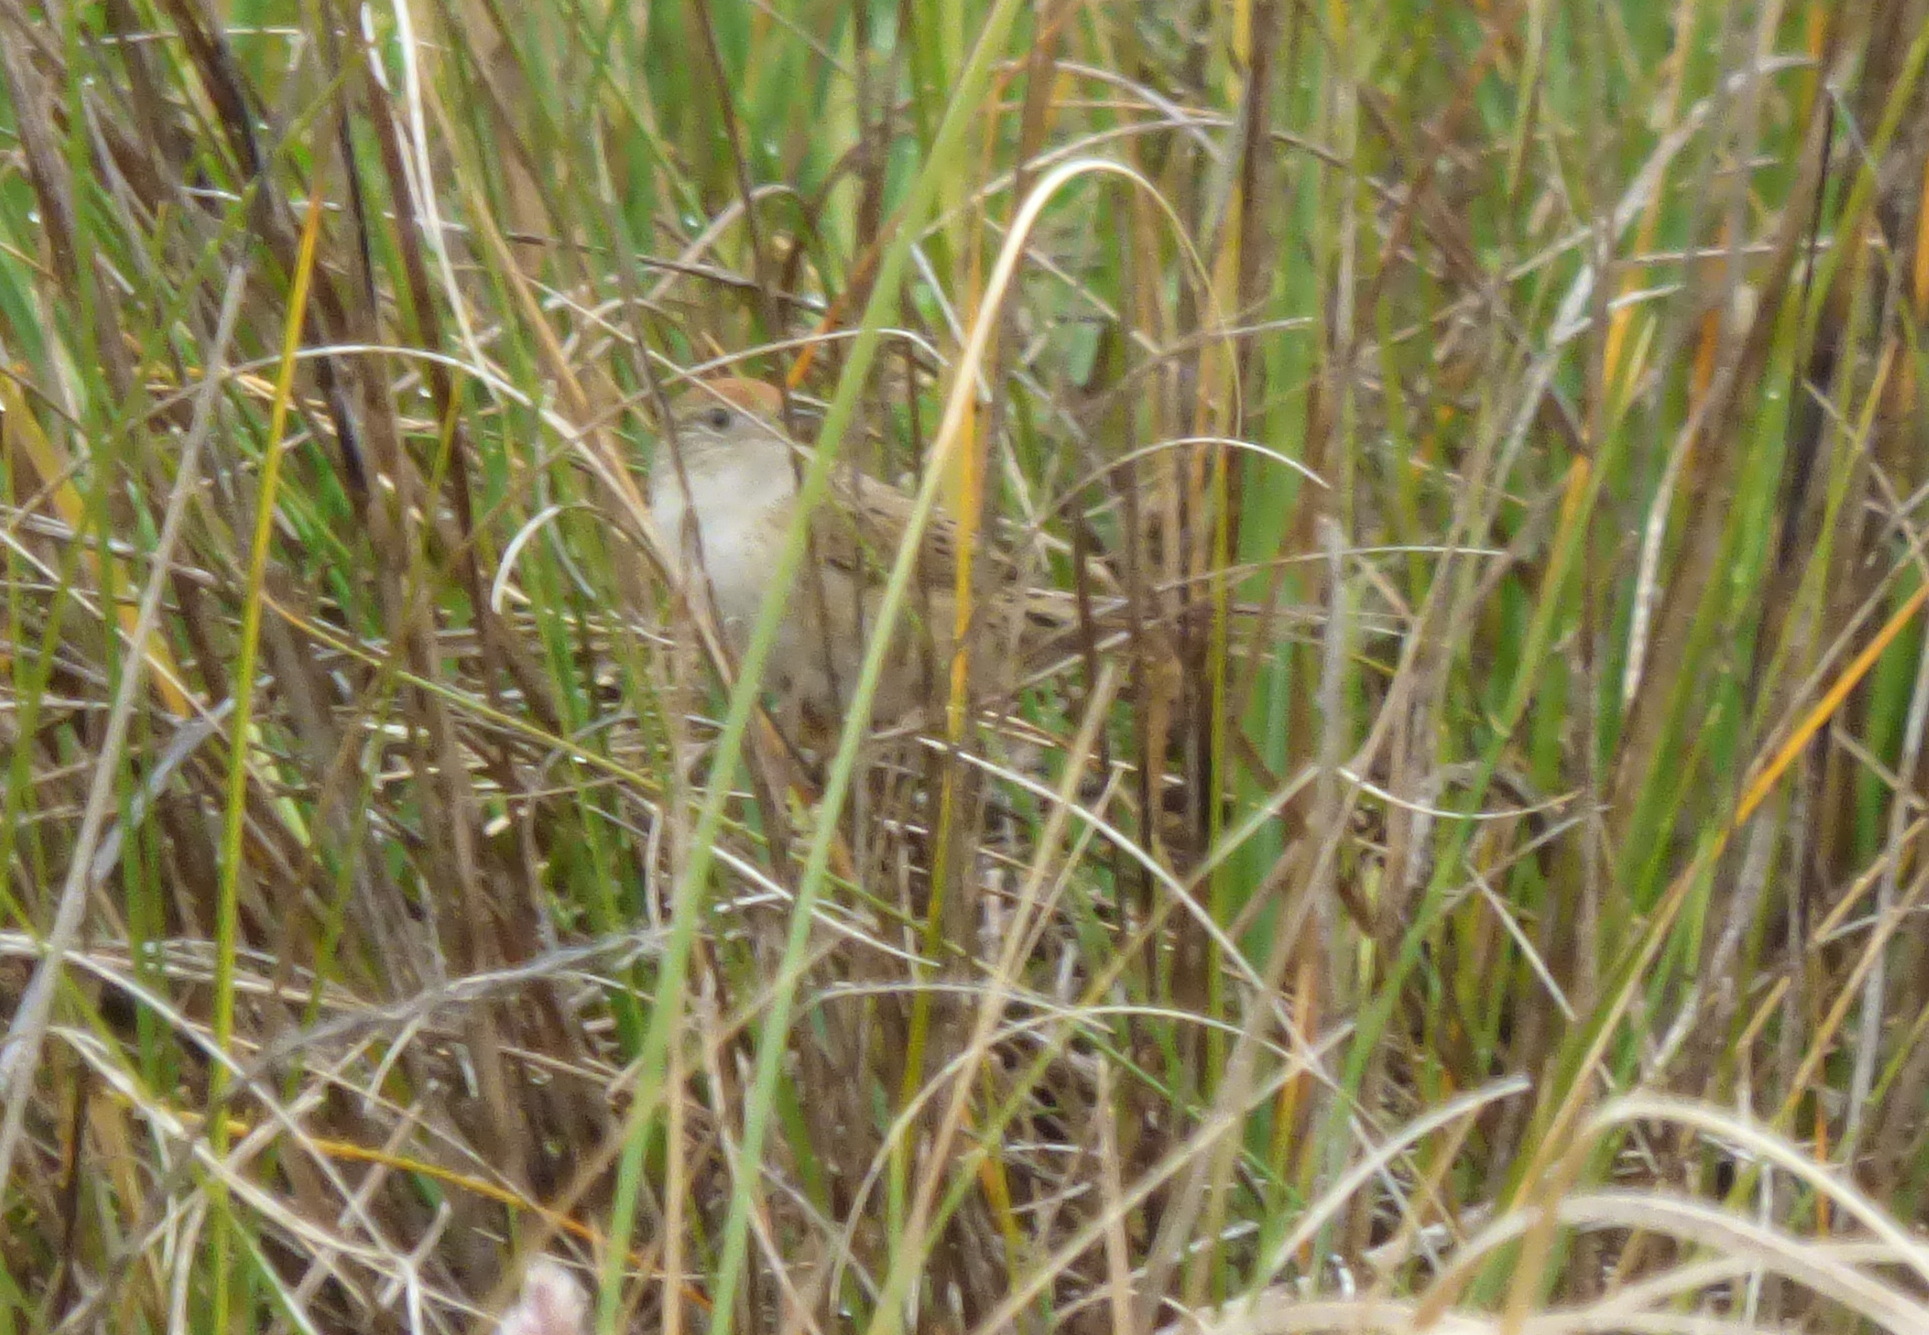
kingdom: Animalia
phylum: Chordata
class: Aves
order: Passeriformes
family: Furnariidae
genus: Spartonoica
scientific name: Spartonoica maluroides
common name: Bay-capped wren-spinetail
